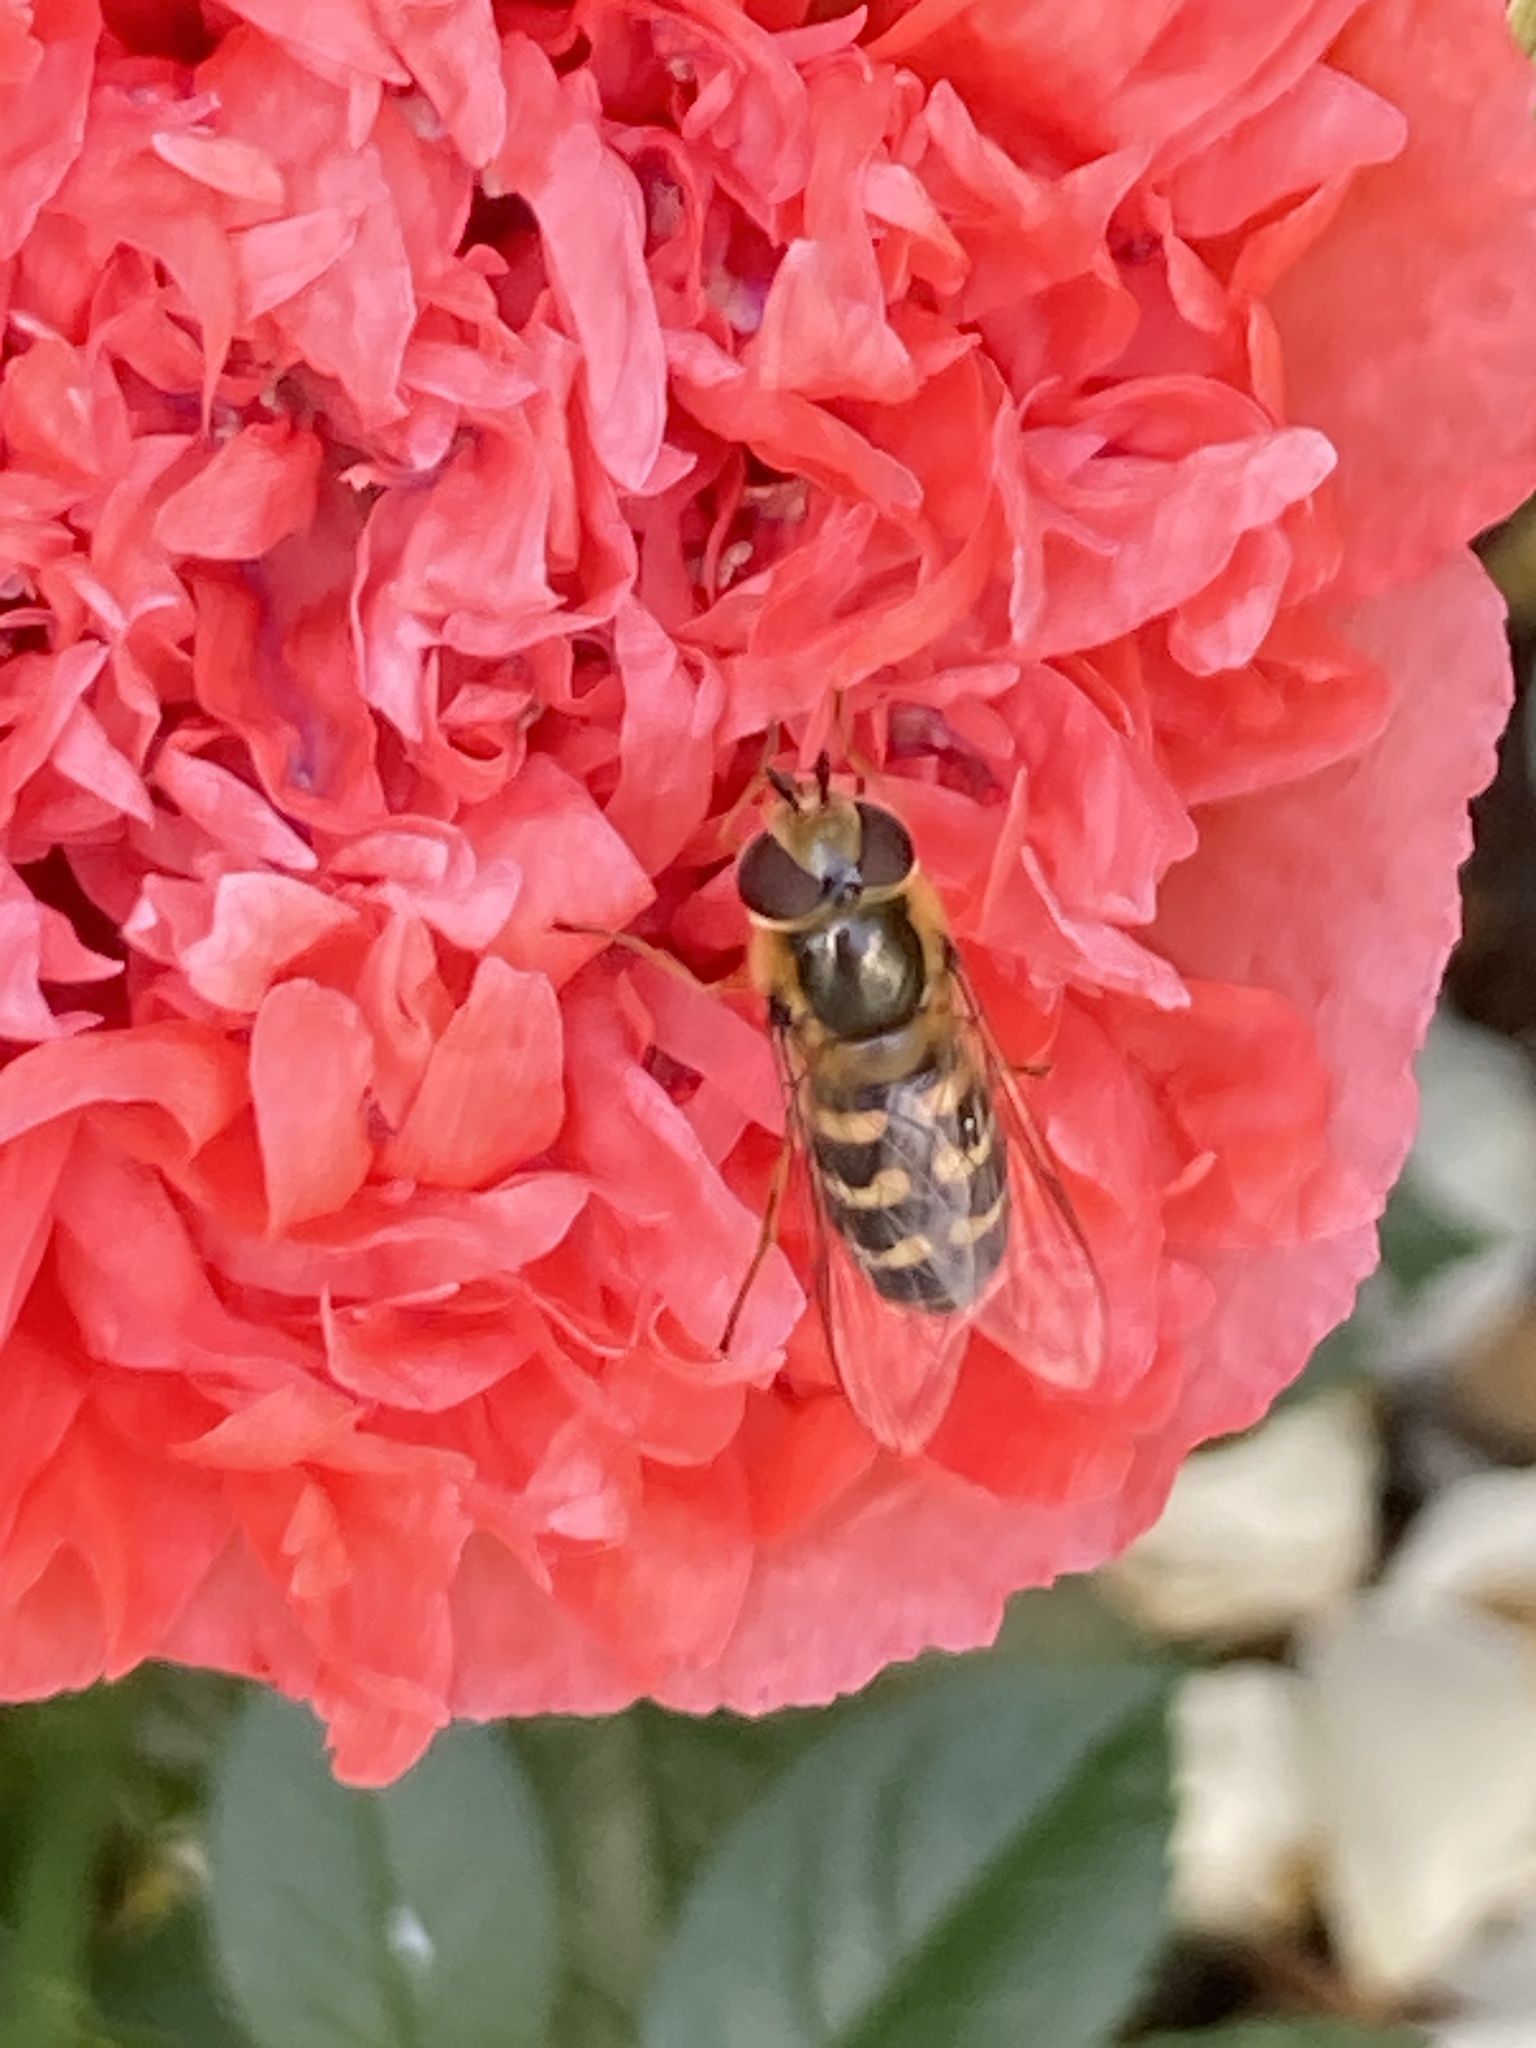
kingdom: Animalia
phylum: Arthropoda
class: Insecta
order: Diptera
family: Syrphidae
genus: Scaeva
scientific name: Scaeva selenitica
